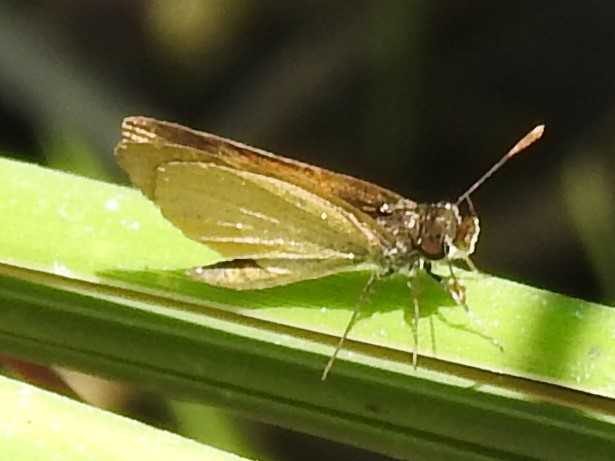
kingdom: Animalia
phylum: Arthropoda
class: Insecta
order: Lepidoptera
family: Hesperiidae
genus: Ancyloxypha
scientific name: Ancyloxypha numitor
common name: Least skipper
